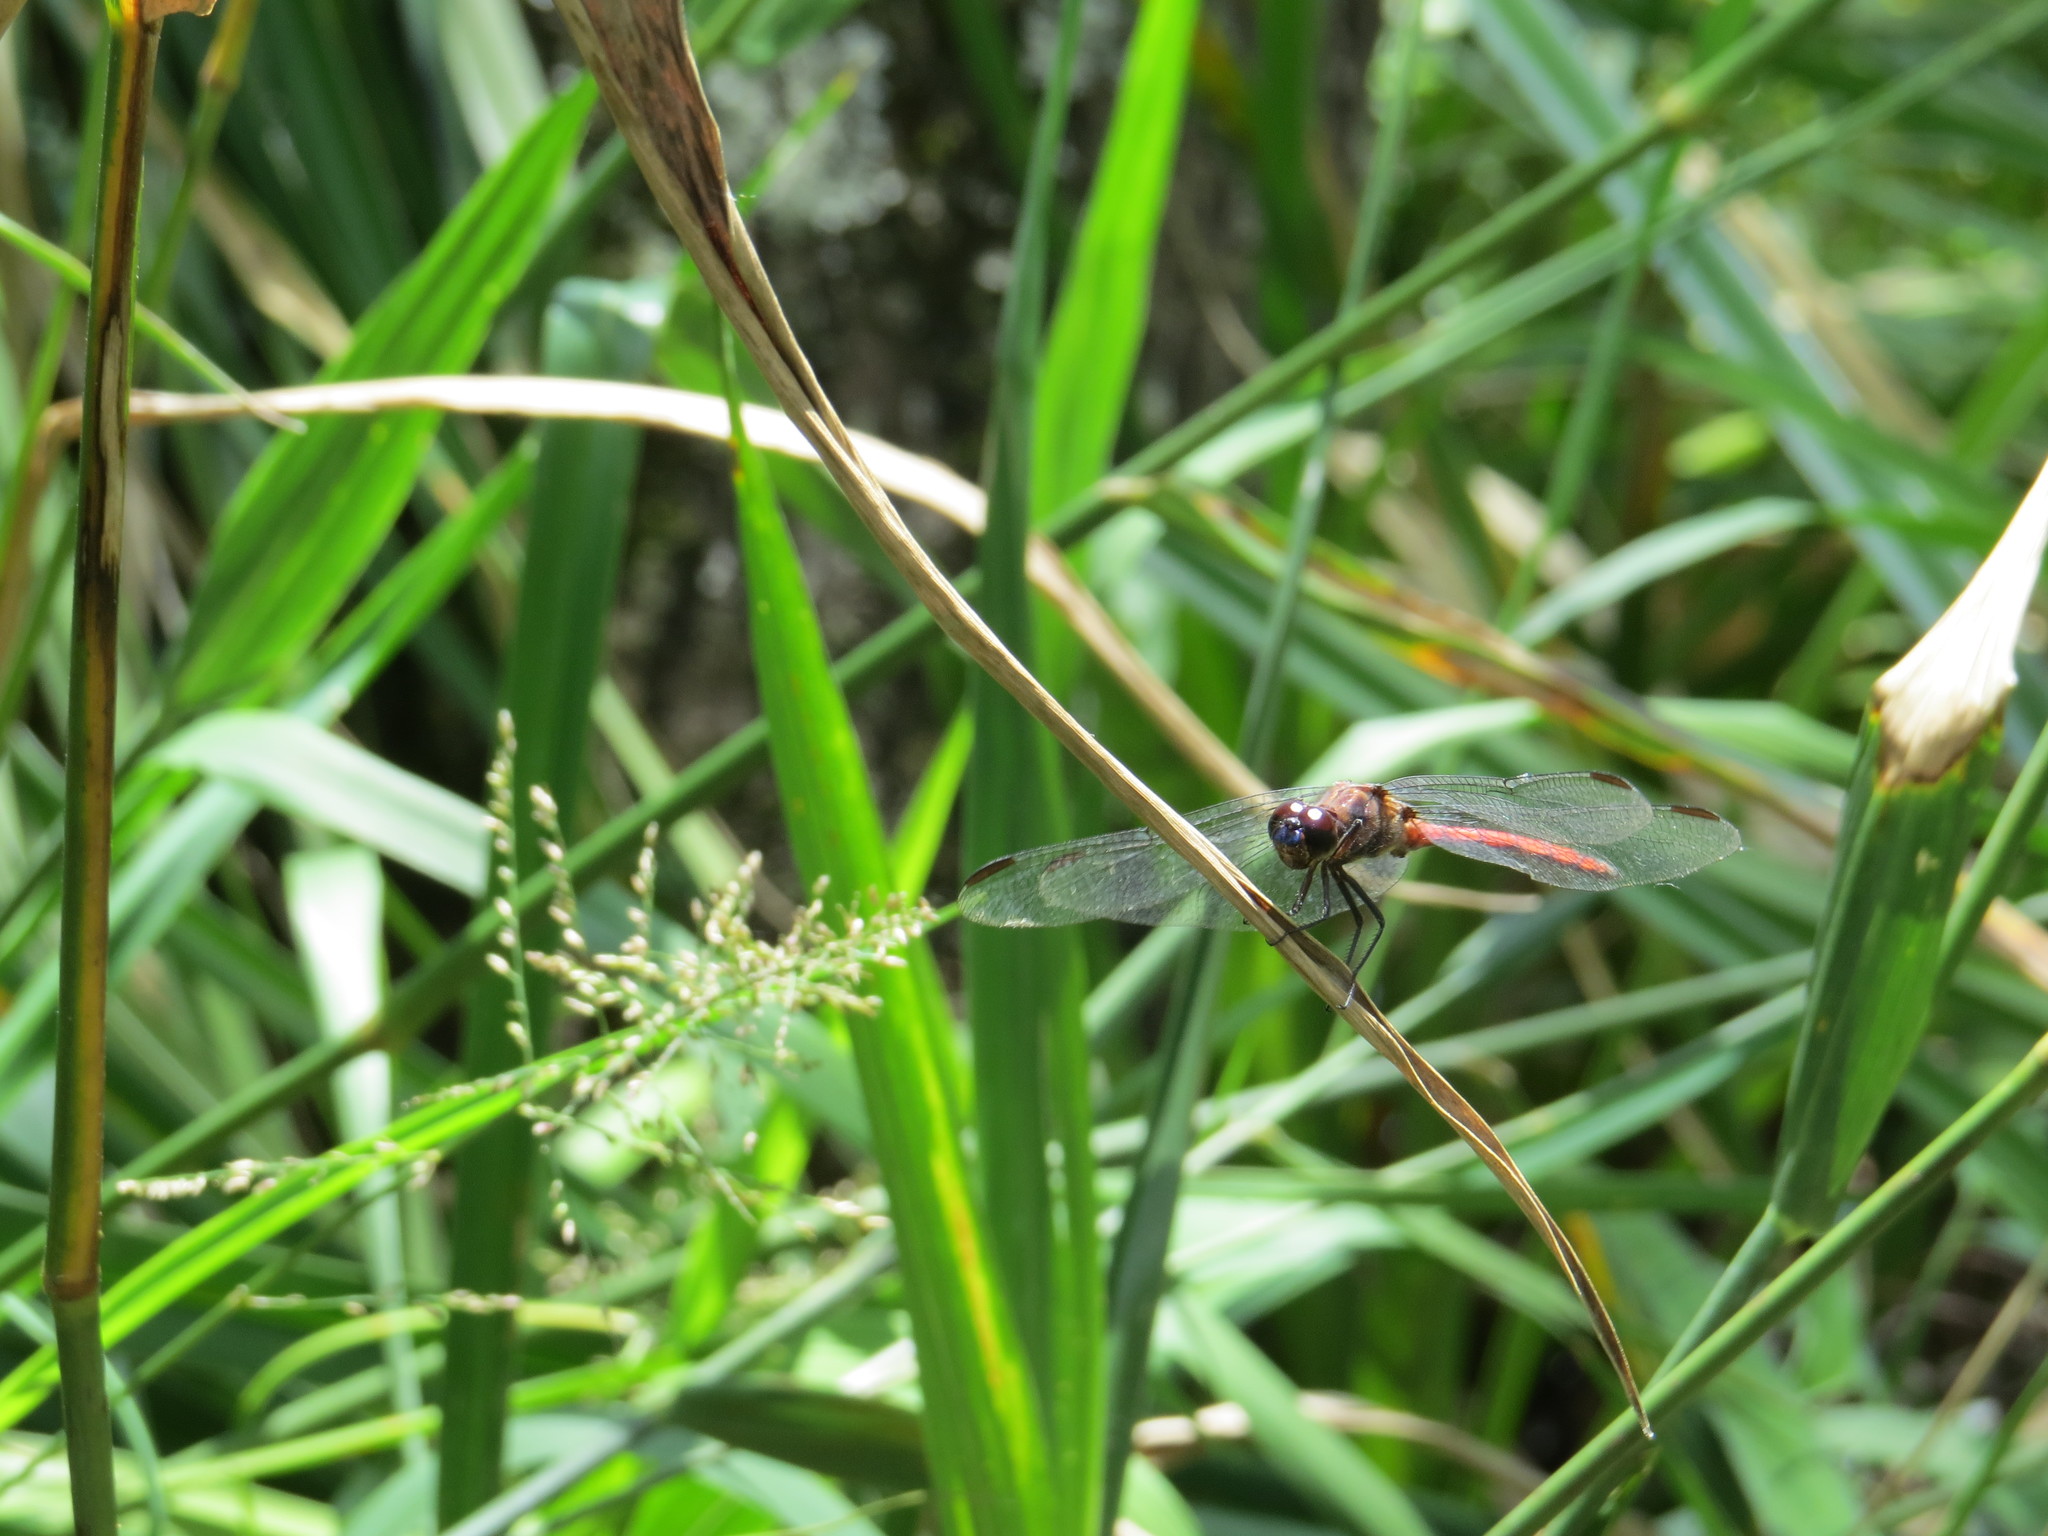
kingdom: Animalia
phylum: Arthropoda
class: Insecta
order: Odonata
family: Libellulidae
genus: Orthemis
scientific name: Orthemis ambinigra
